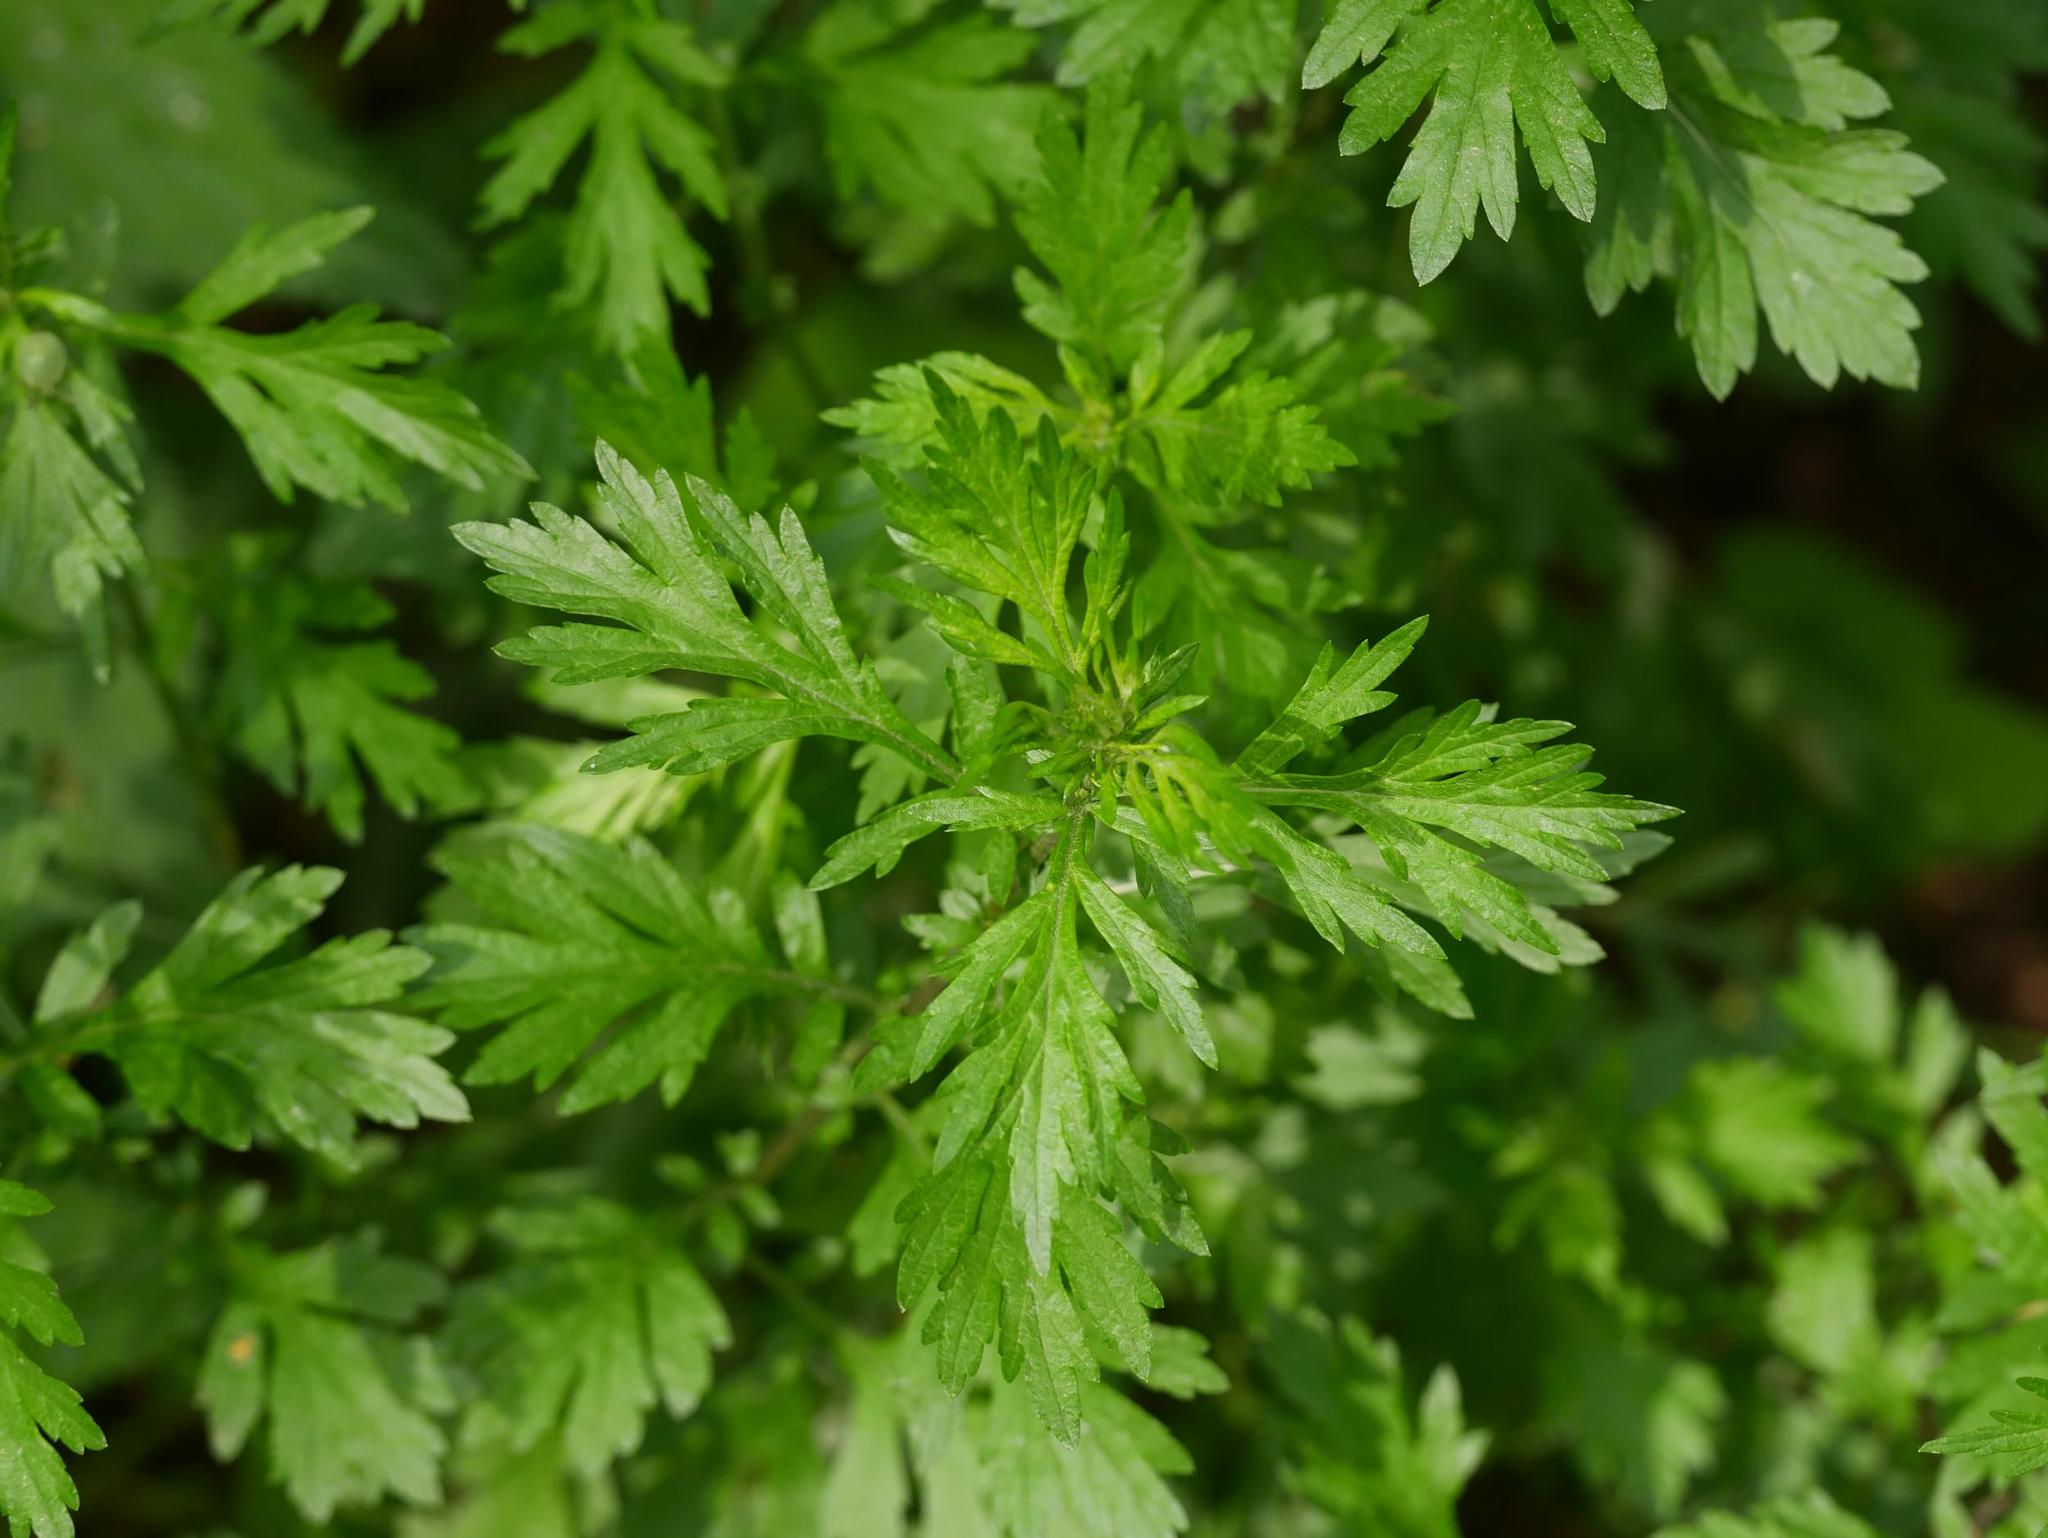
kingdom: Plantae
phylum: Tracheophyta
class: Magnoliopsida
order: Asterales
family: Asteraceae
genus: Artemisia
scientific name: Artemisia vulgaris
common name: Mugwort
